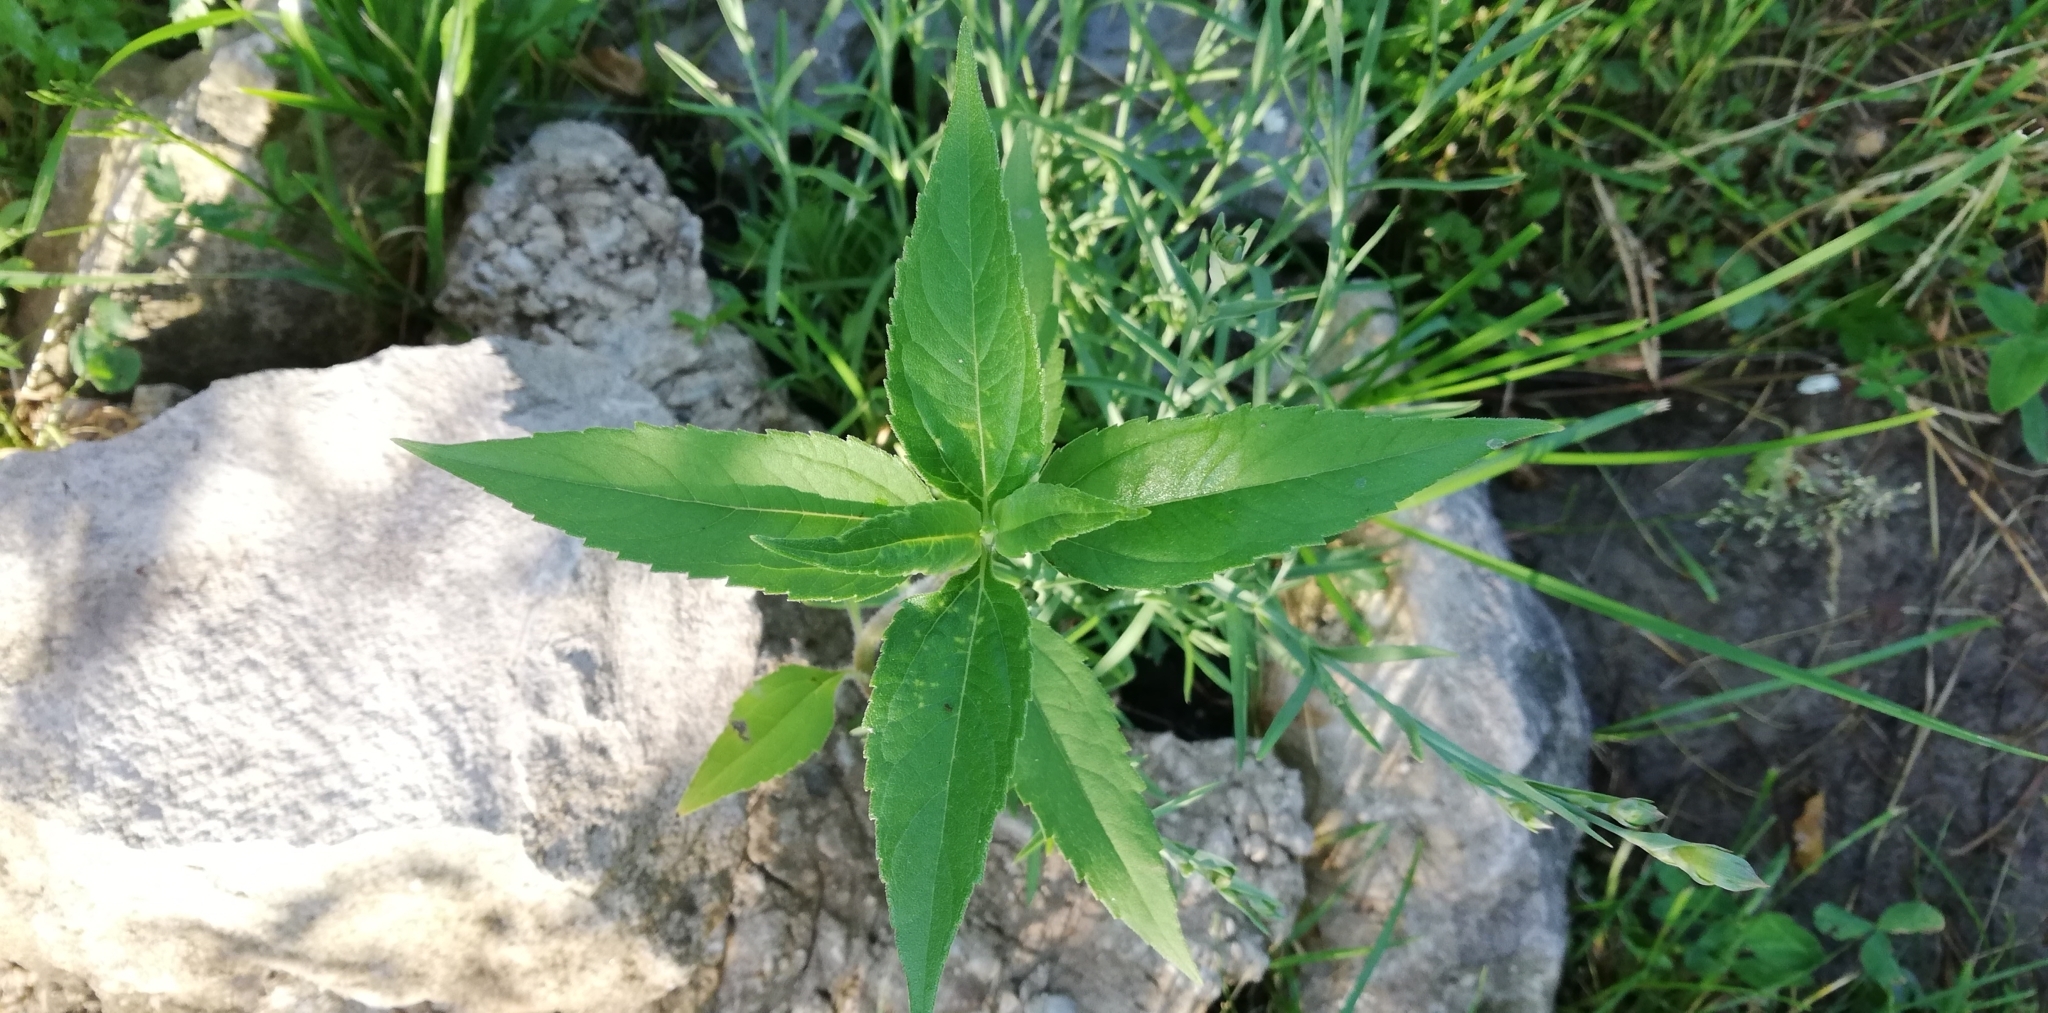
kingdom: Plantae
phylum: Tracheophyta
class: Magnoliopsida
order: Asterales
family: Asteraceae
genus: Helianthus
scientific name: Helianthus tuberosus
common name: Jerusalem artichoke
